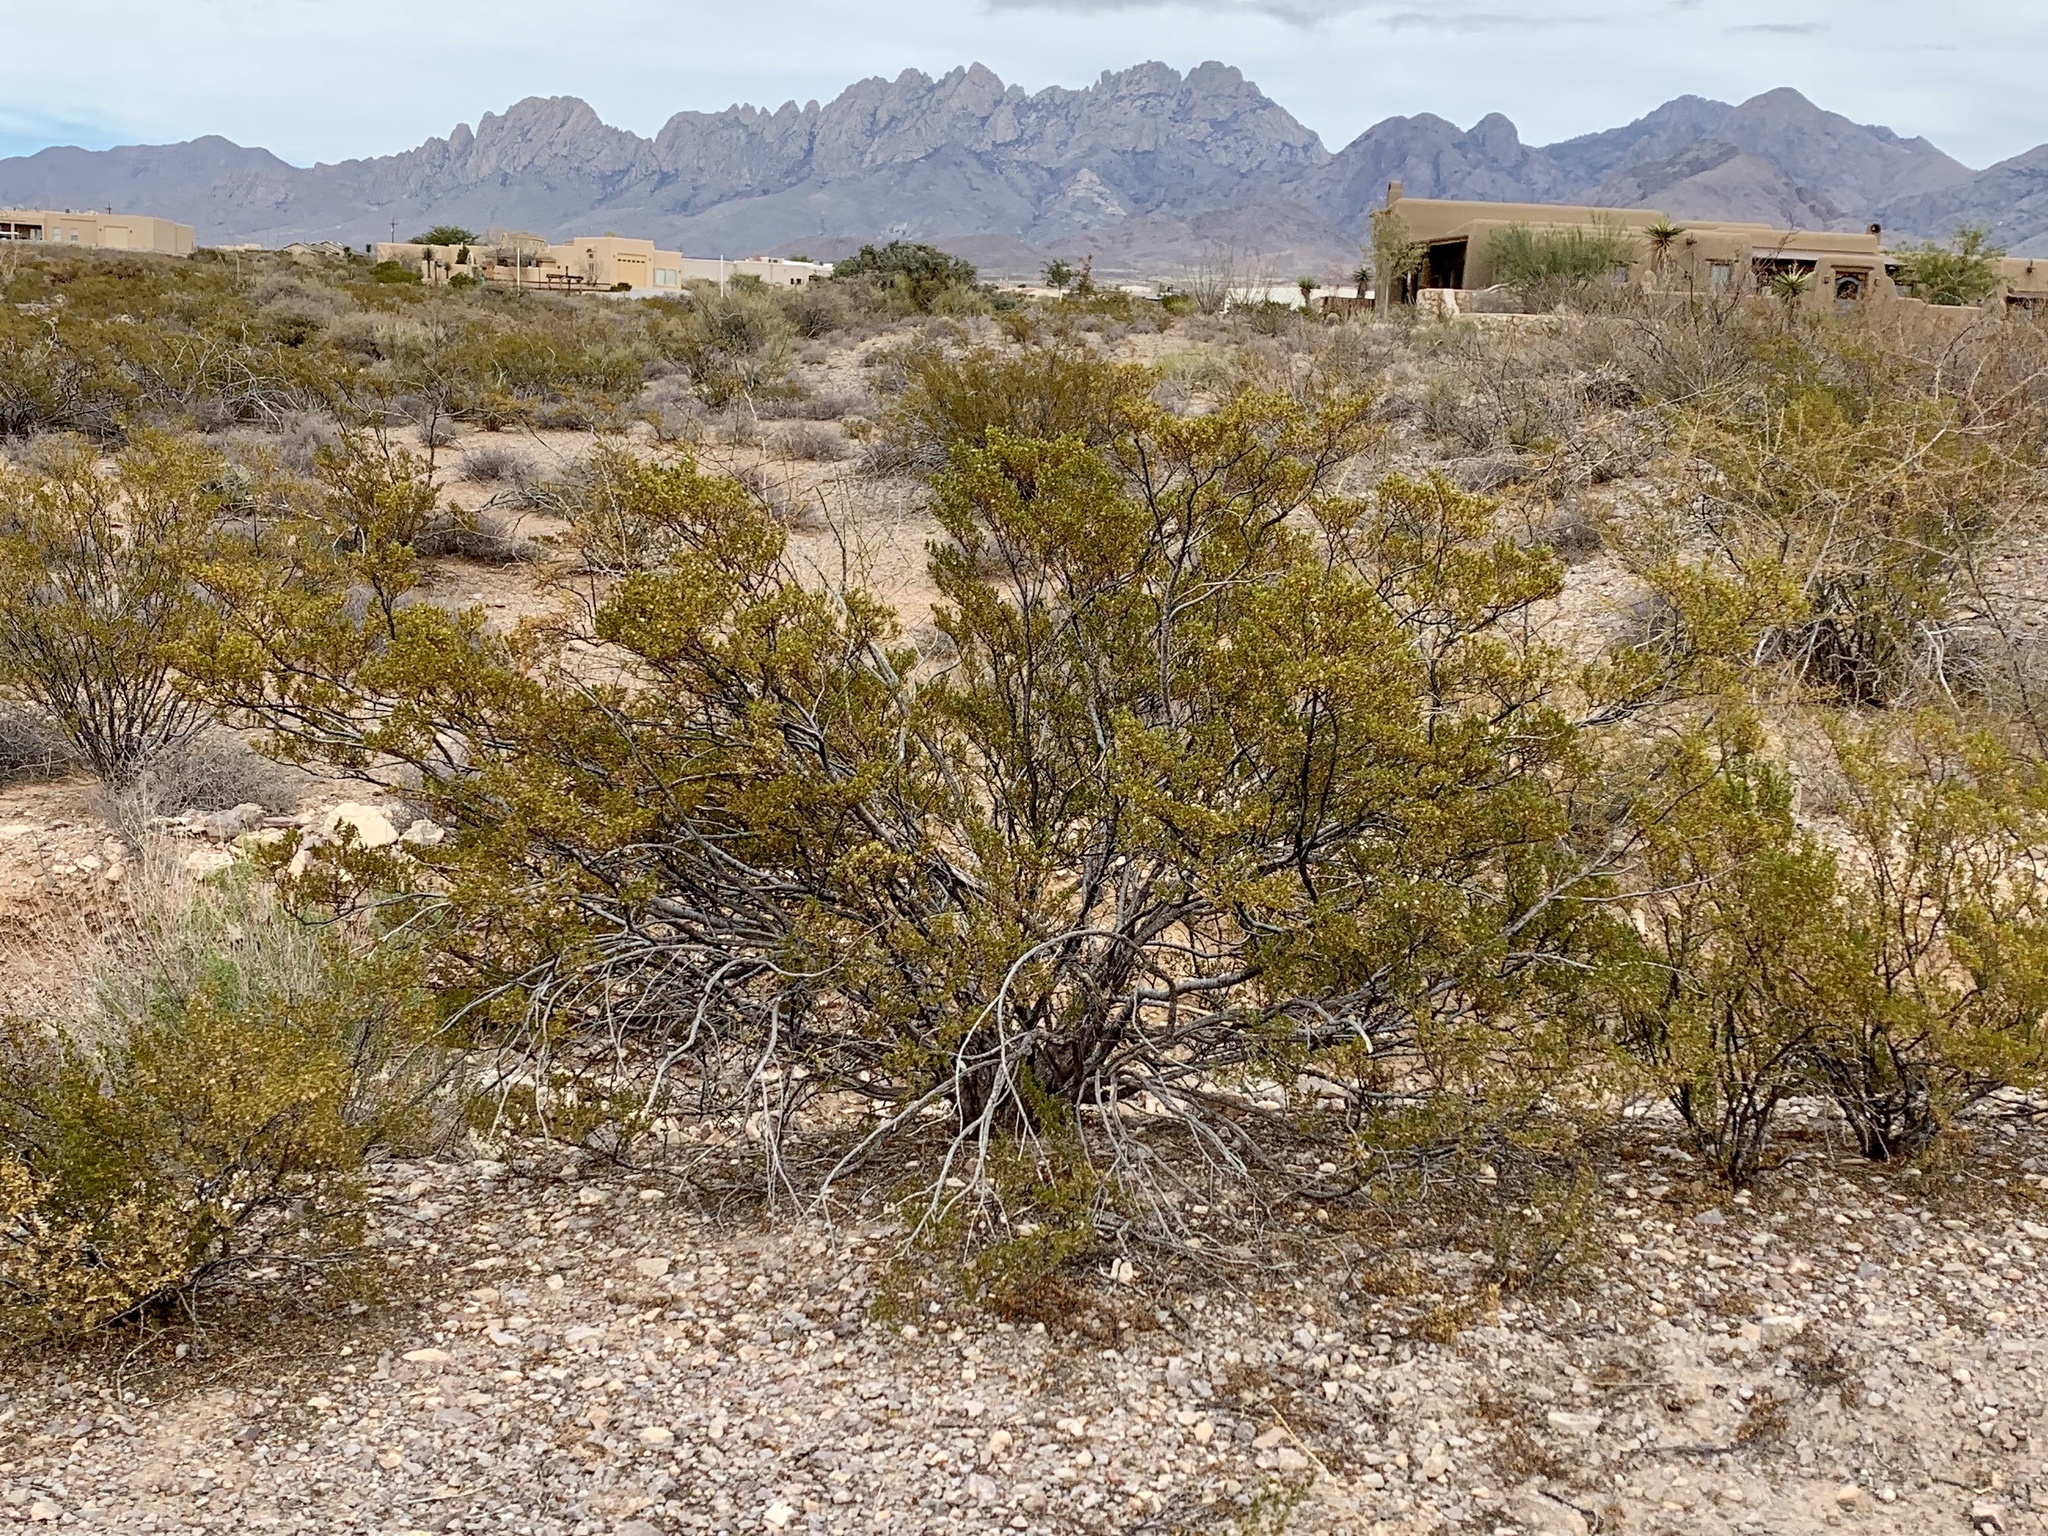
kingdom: Plantae
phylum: Tracheophyta
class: Magnoliopsida
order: Zygophyllales
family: Zygophyllaceae
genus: Larrea
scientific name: Larrea tridentata
